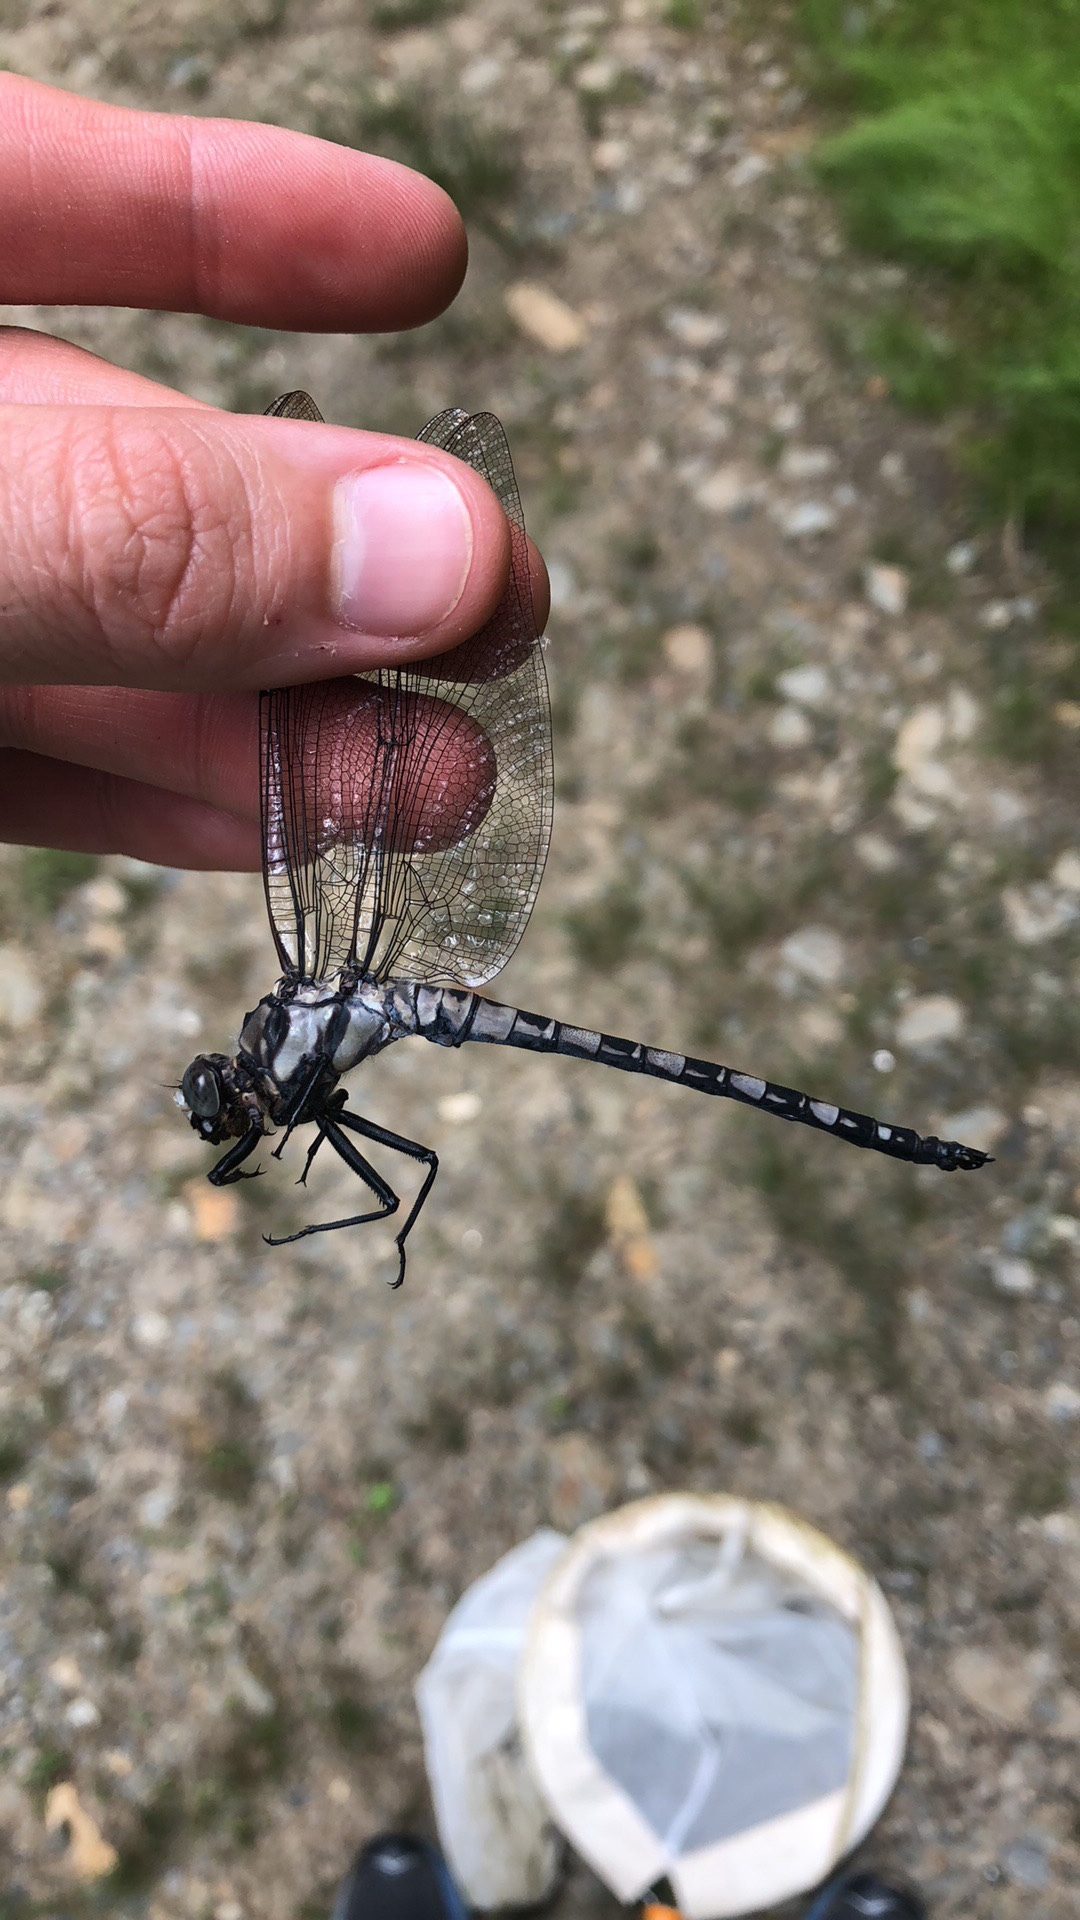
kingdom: Animalia
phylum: Arthropoda
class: Insecta
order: Odonata
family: Petaluridae
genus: Tachopteryx
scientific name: Tachopteryx thoreyi
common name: Gray petaltail
